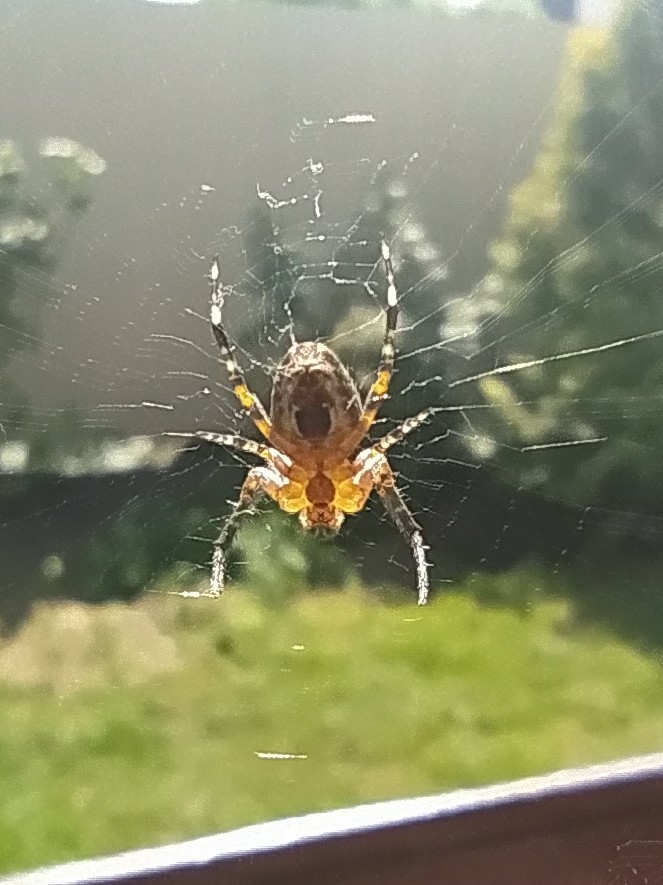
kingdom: Animalia
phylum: Arthropoda
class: Arachnida
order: Araneae
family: Araneidae
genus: Araneus
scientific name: Araneus diadematus
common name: Cross orbweaver
